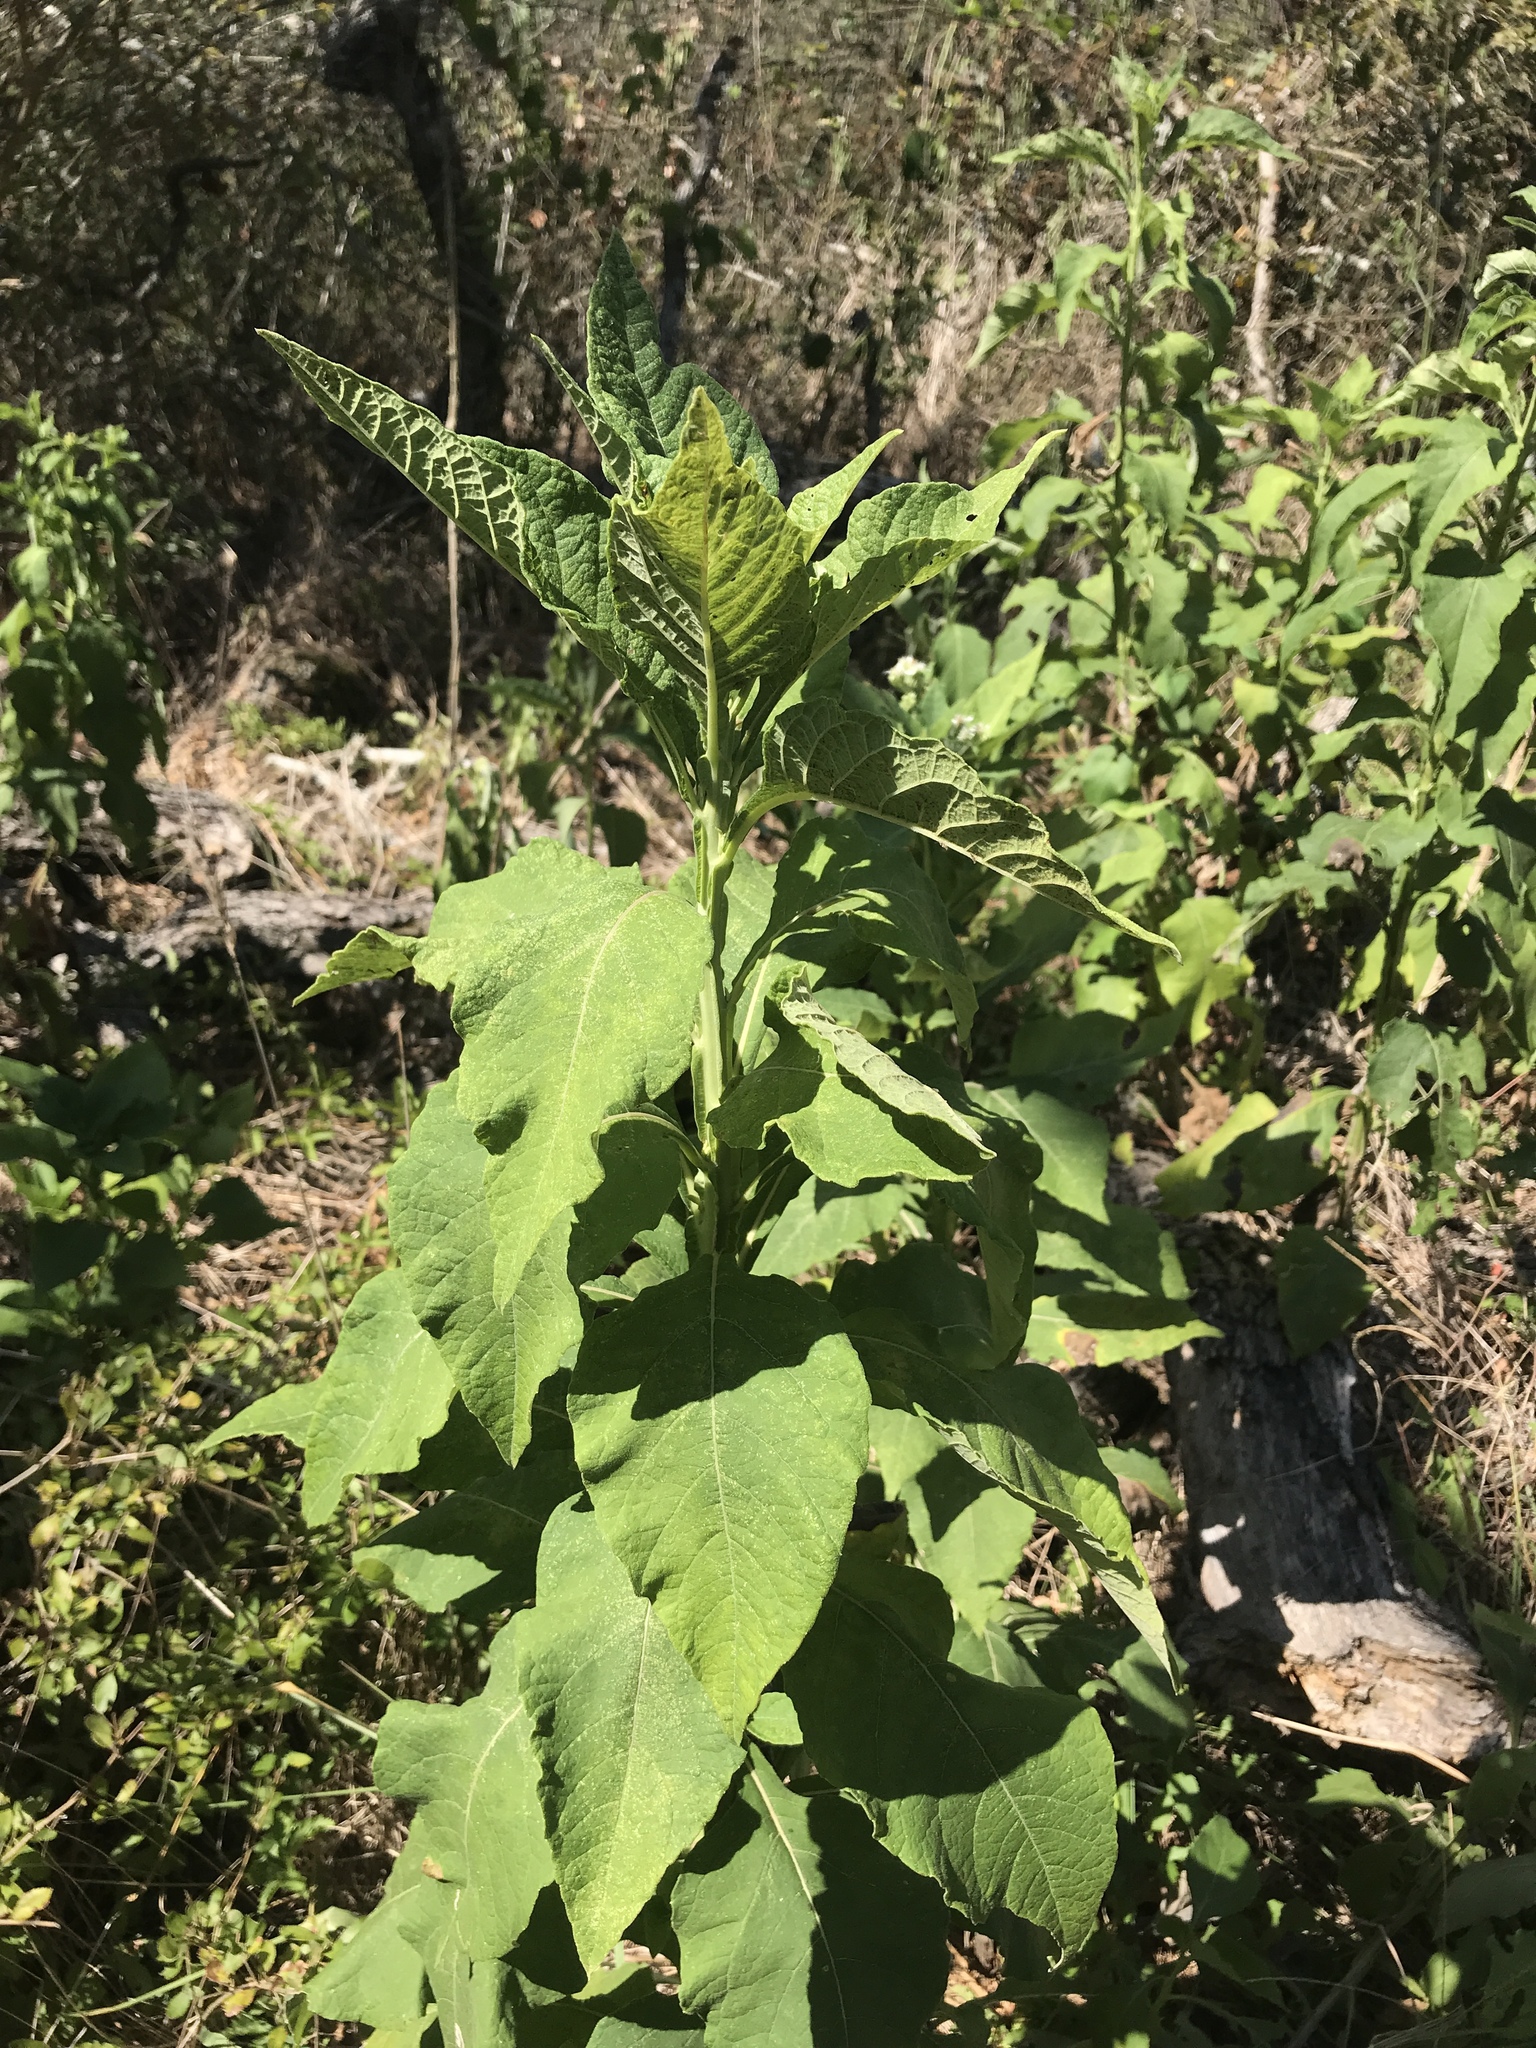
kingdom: Plantae
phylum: Tracheophyta
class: Magnoliopsida
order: Asterales
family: Asteraceae
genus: Verbesina
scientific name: Verbesina virginica
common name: Frostweed
